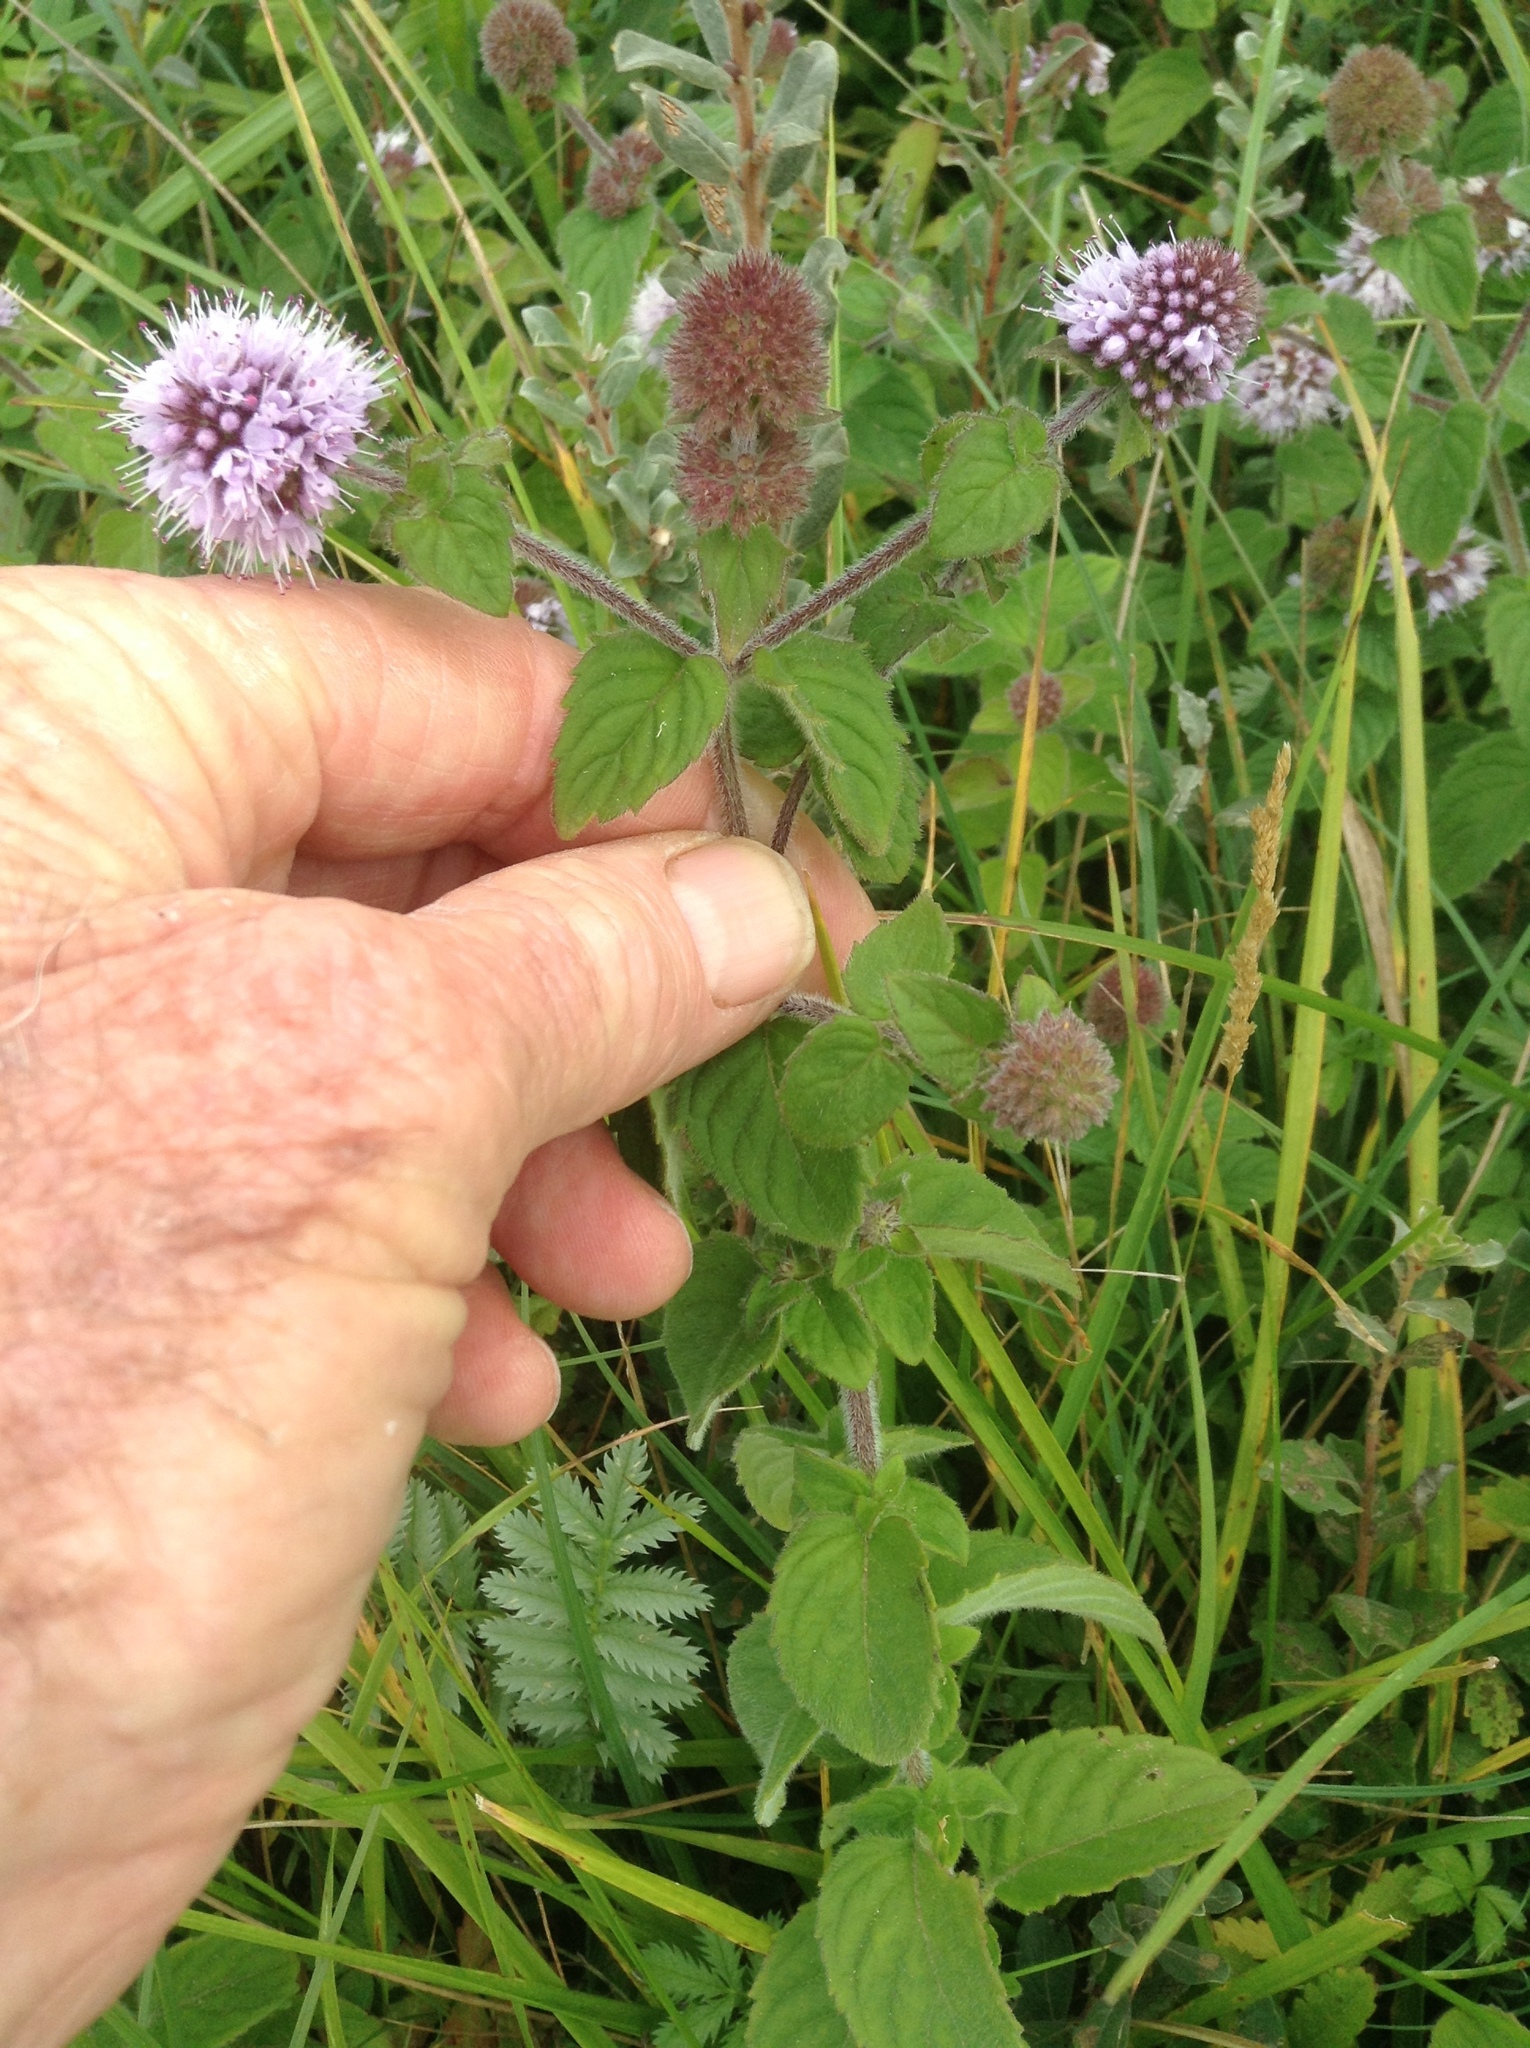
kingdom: Plantae
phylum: Tracheophyta
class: Magnoliopsida
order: Lamiales
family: Lamiaceae
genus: Mentha
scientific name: Mentha aquatica
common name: Water mint
